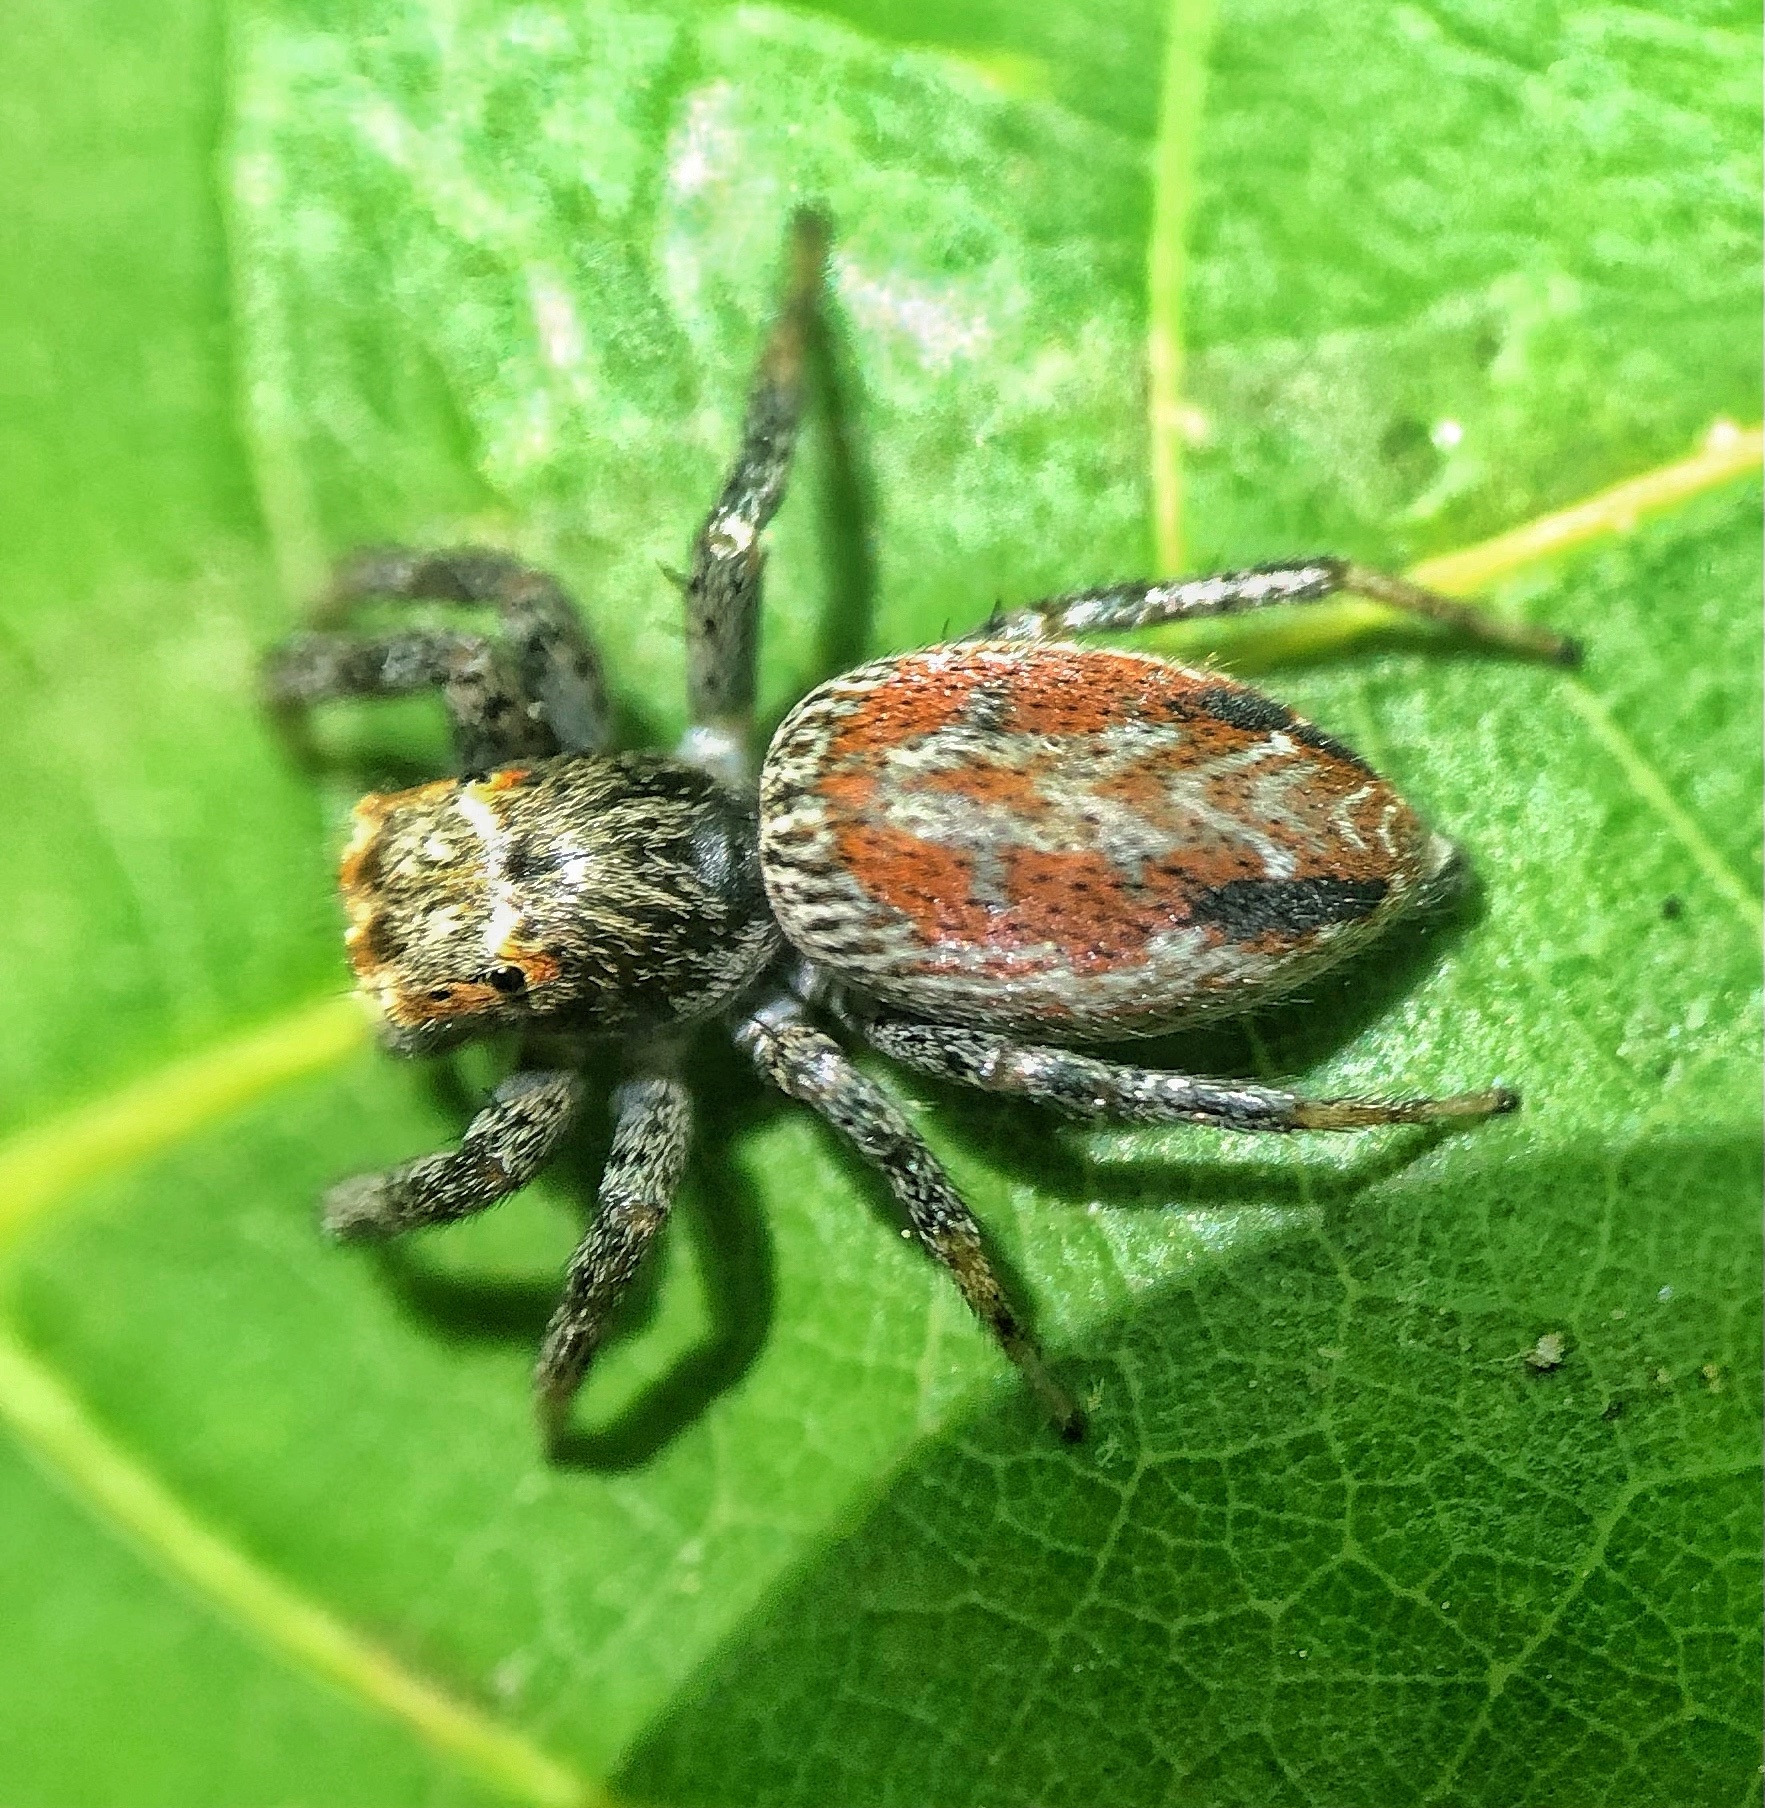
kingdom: Animalia
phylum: Arthropoda
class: Arachnida
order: Araneae
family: Salticidae
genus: Maevia
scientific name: Maevia inclemens
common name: Dimorphic jumper
